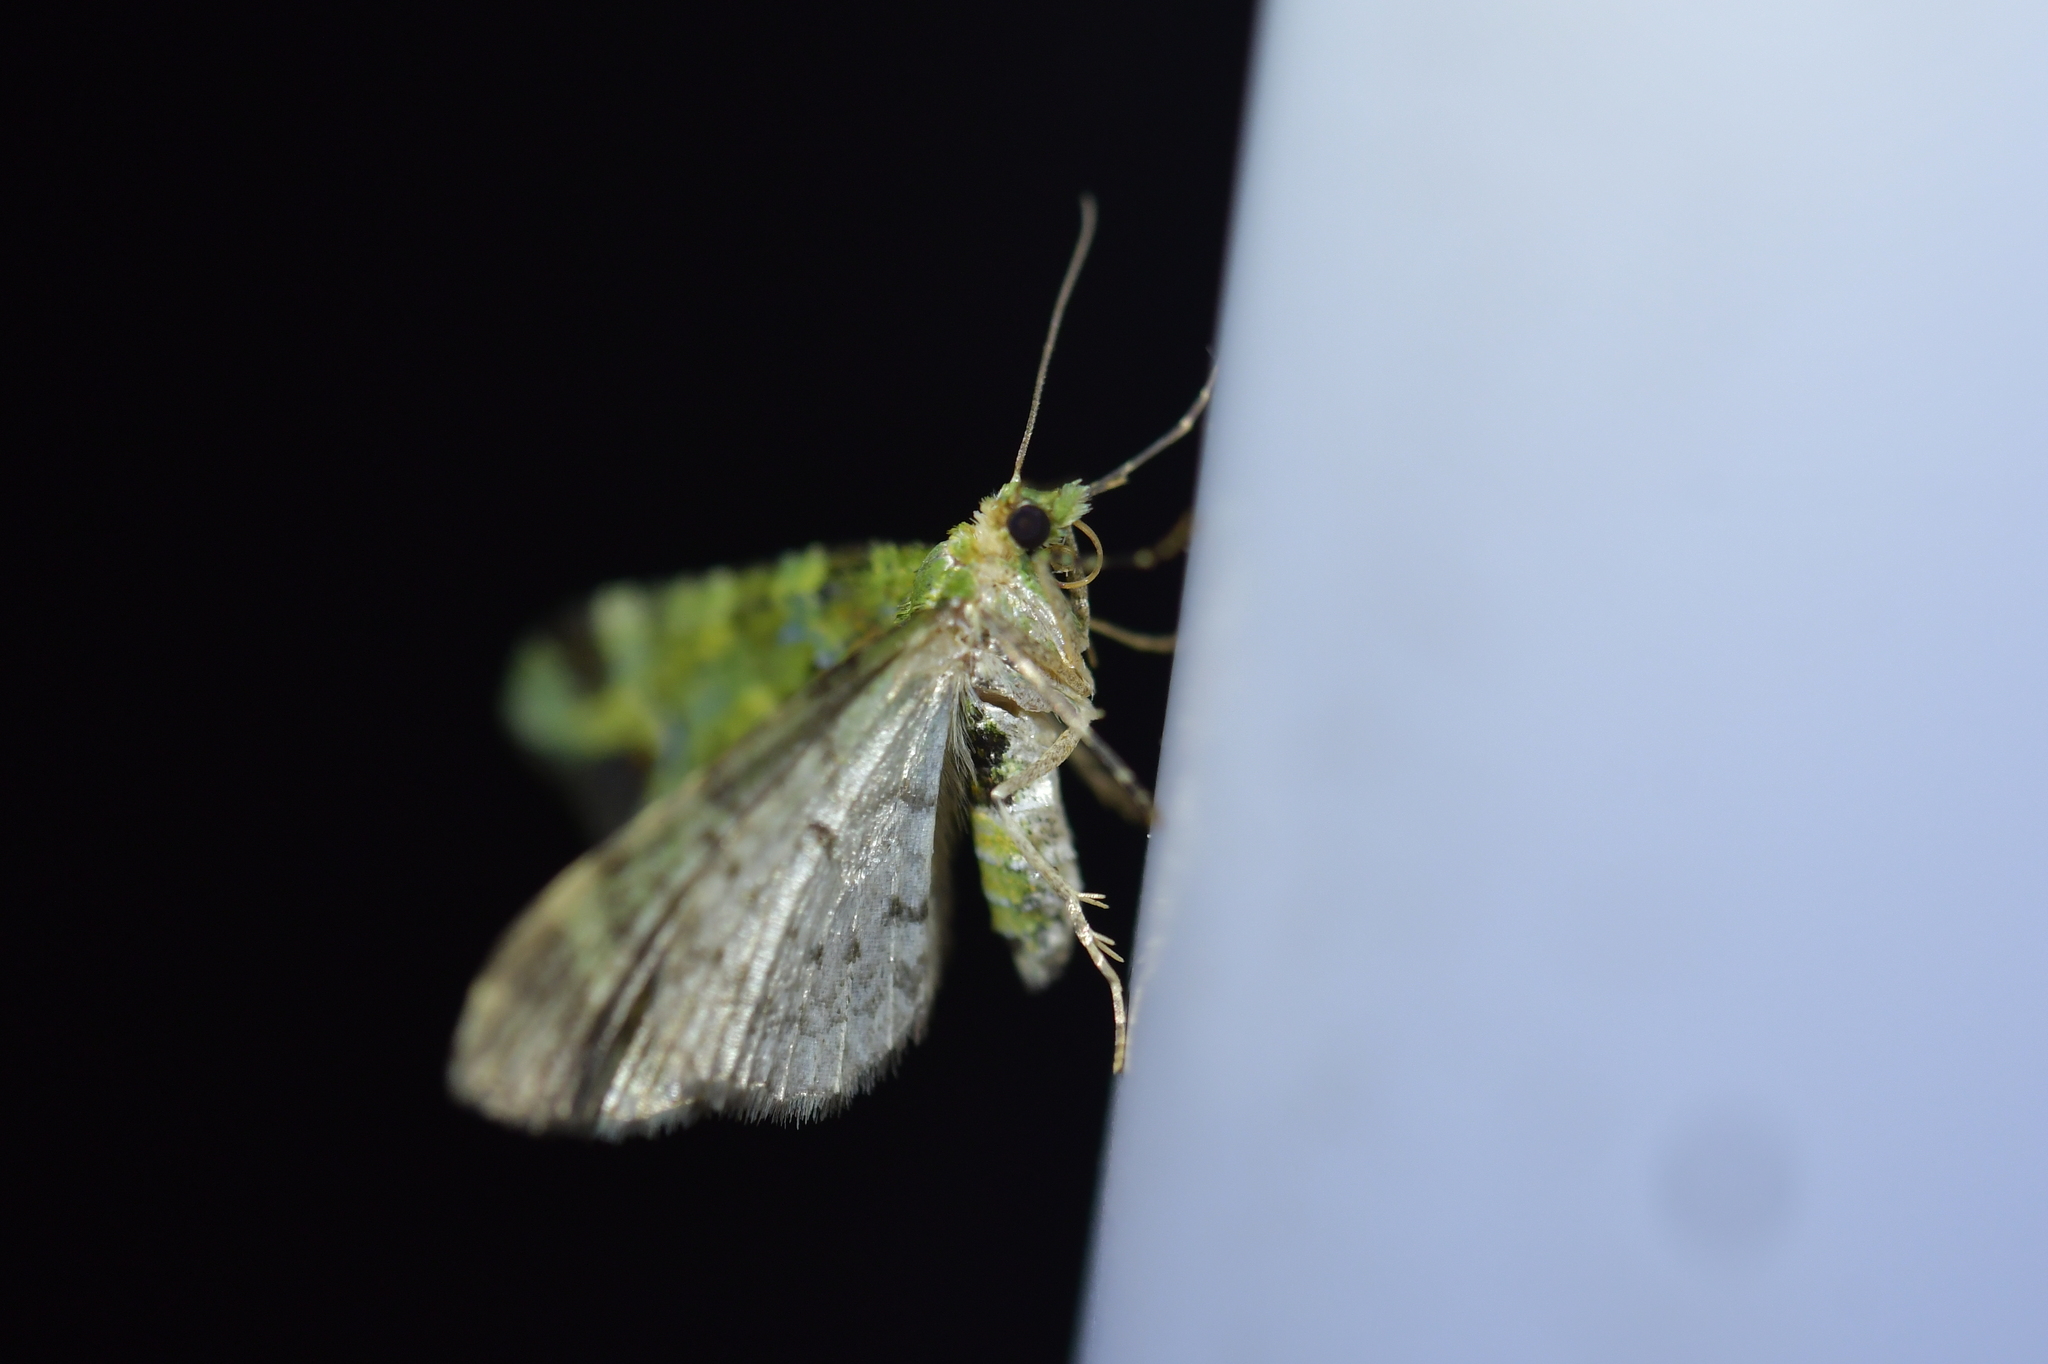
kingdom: Animalia
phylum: Arthropoda
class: Insecta
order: Lepidoptera
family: Geometridae
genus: Pasiphila
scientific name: Pasiphila malachita
